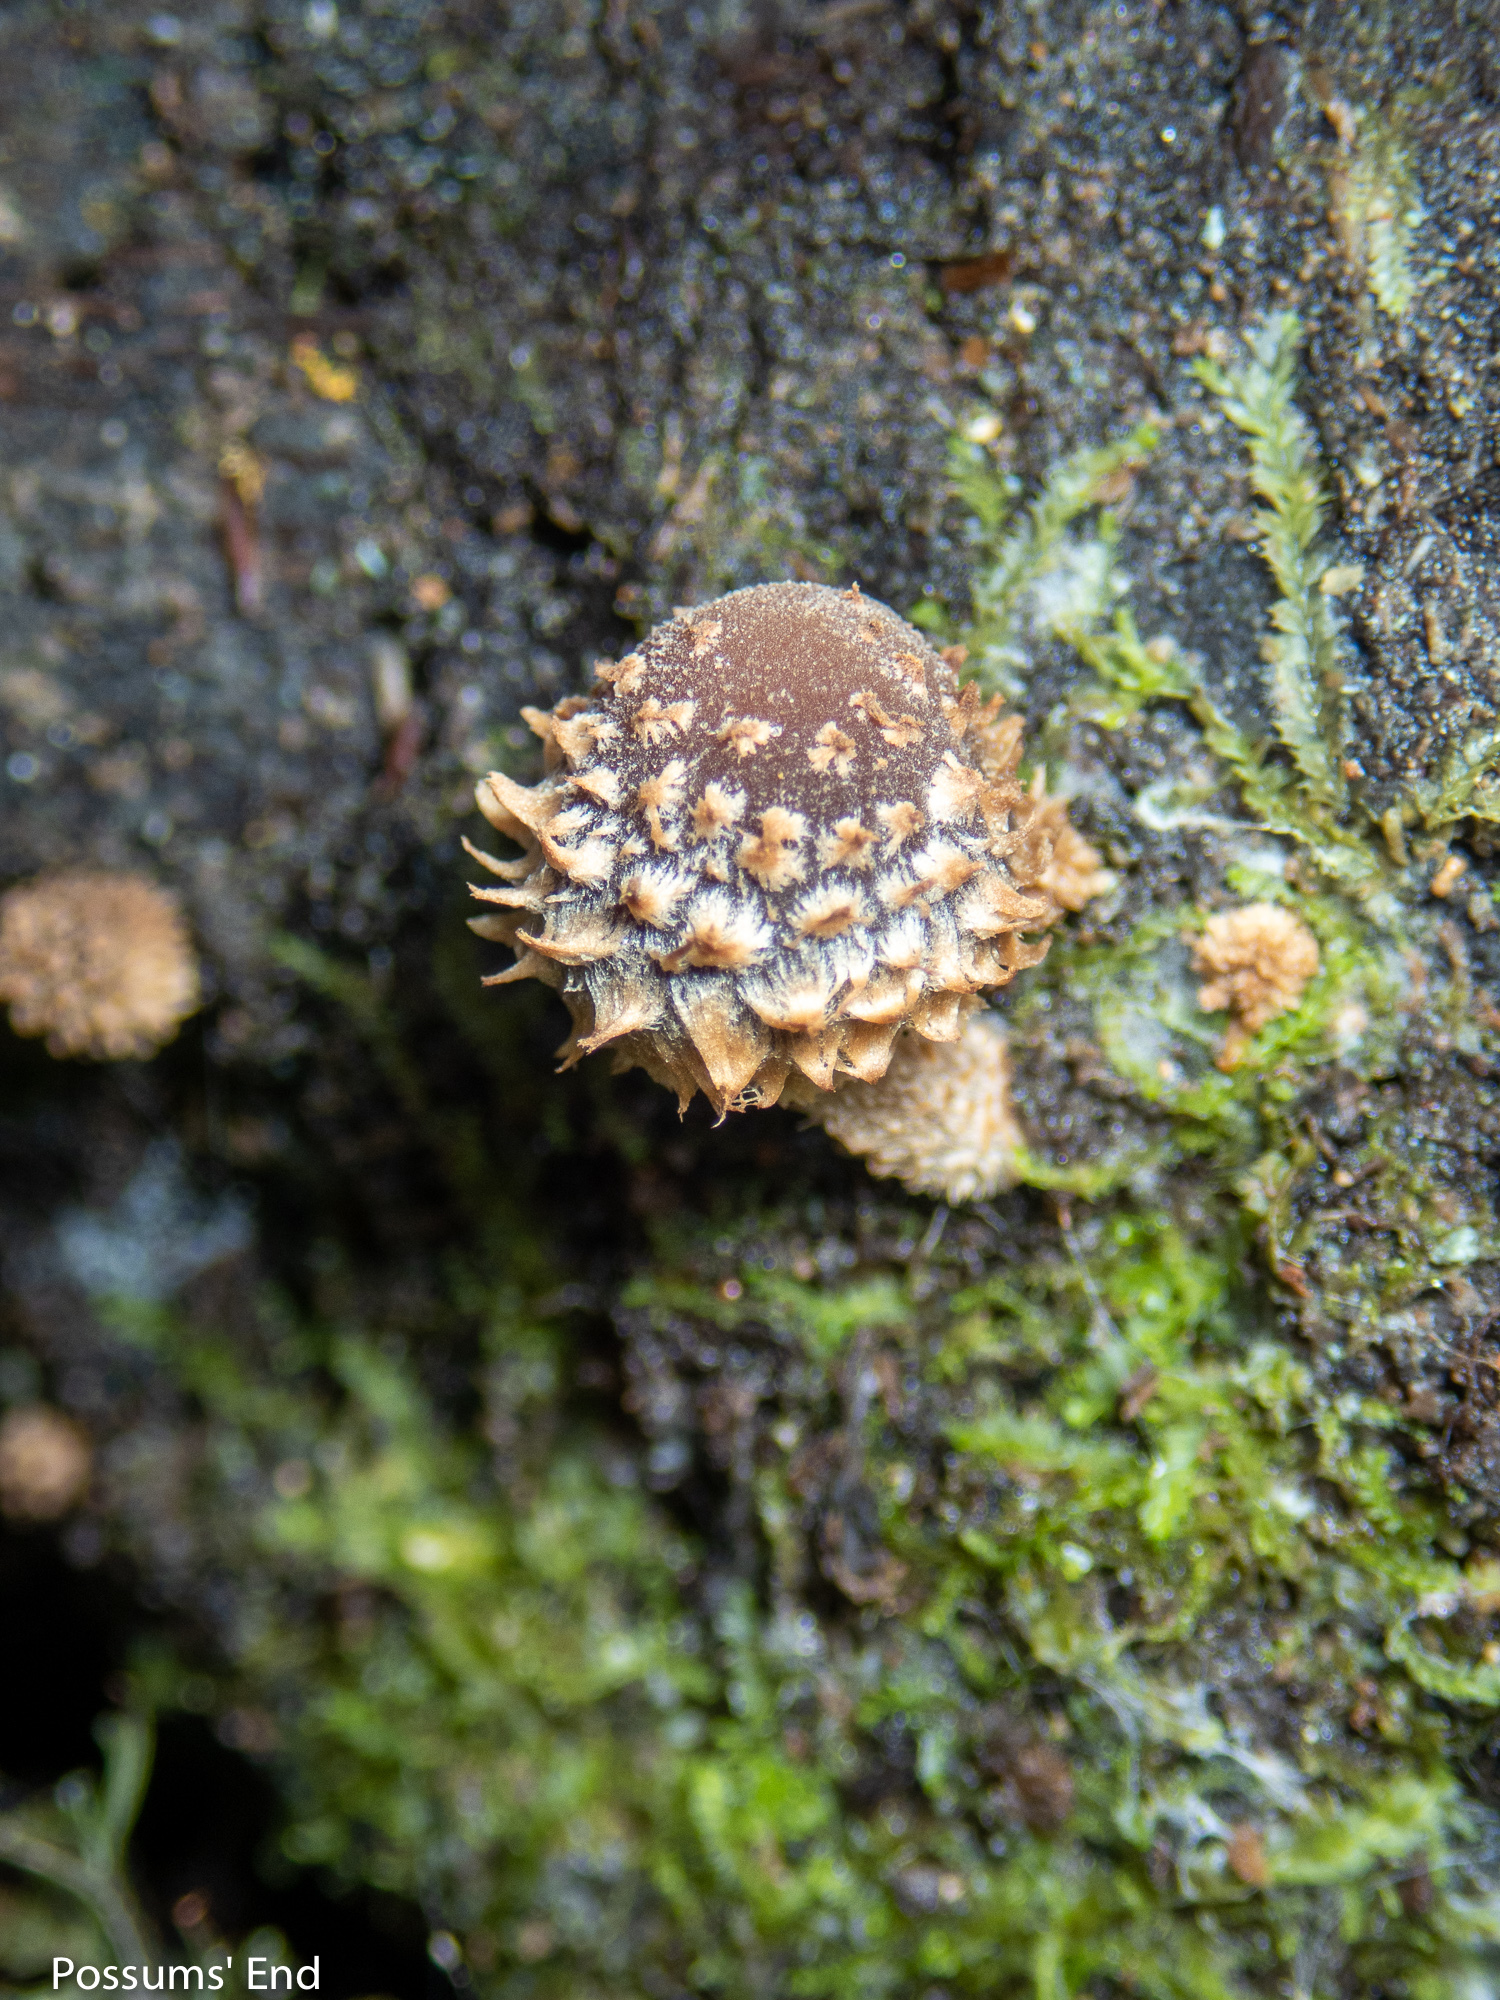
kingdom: Fungi
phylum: Basidiomycota
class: Agaricomycetes
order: Agaricales
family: Psathyrellaceae
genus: Psathyrella
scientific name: Psathyrella echinata
